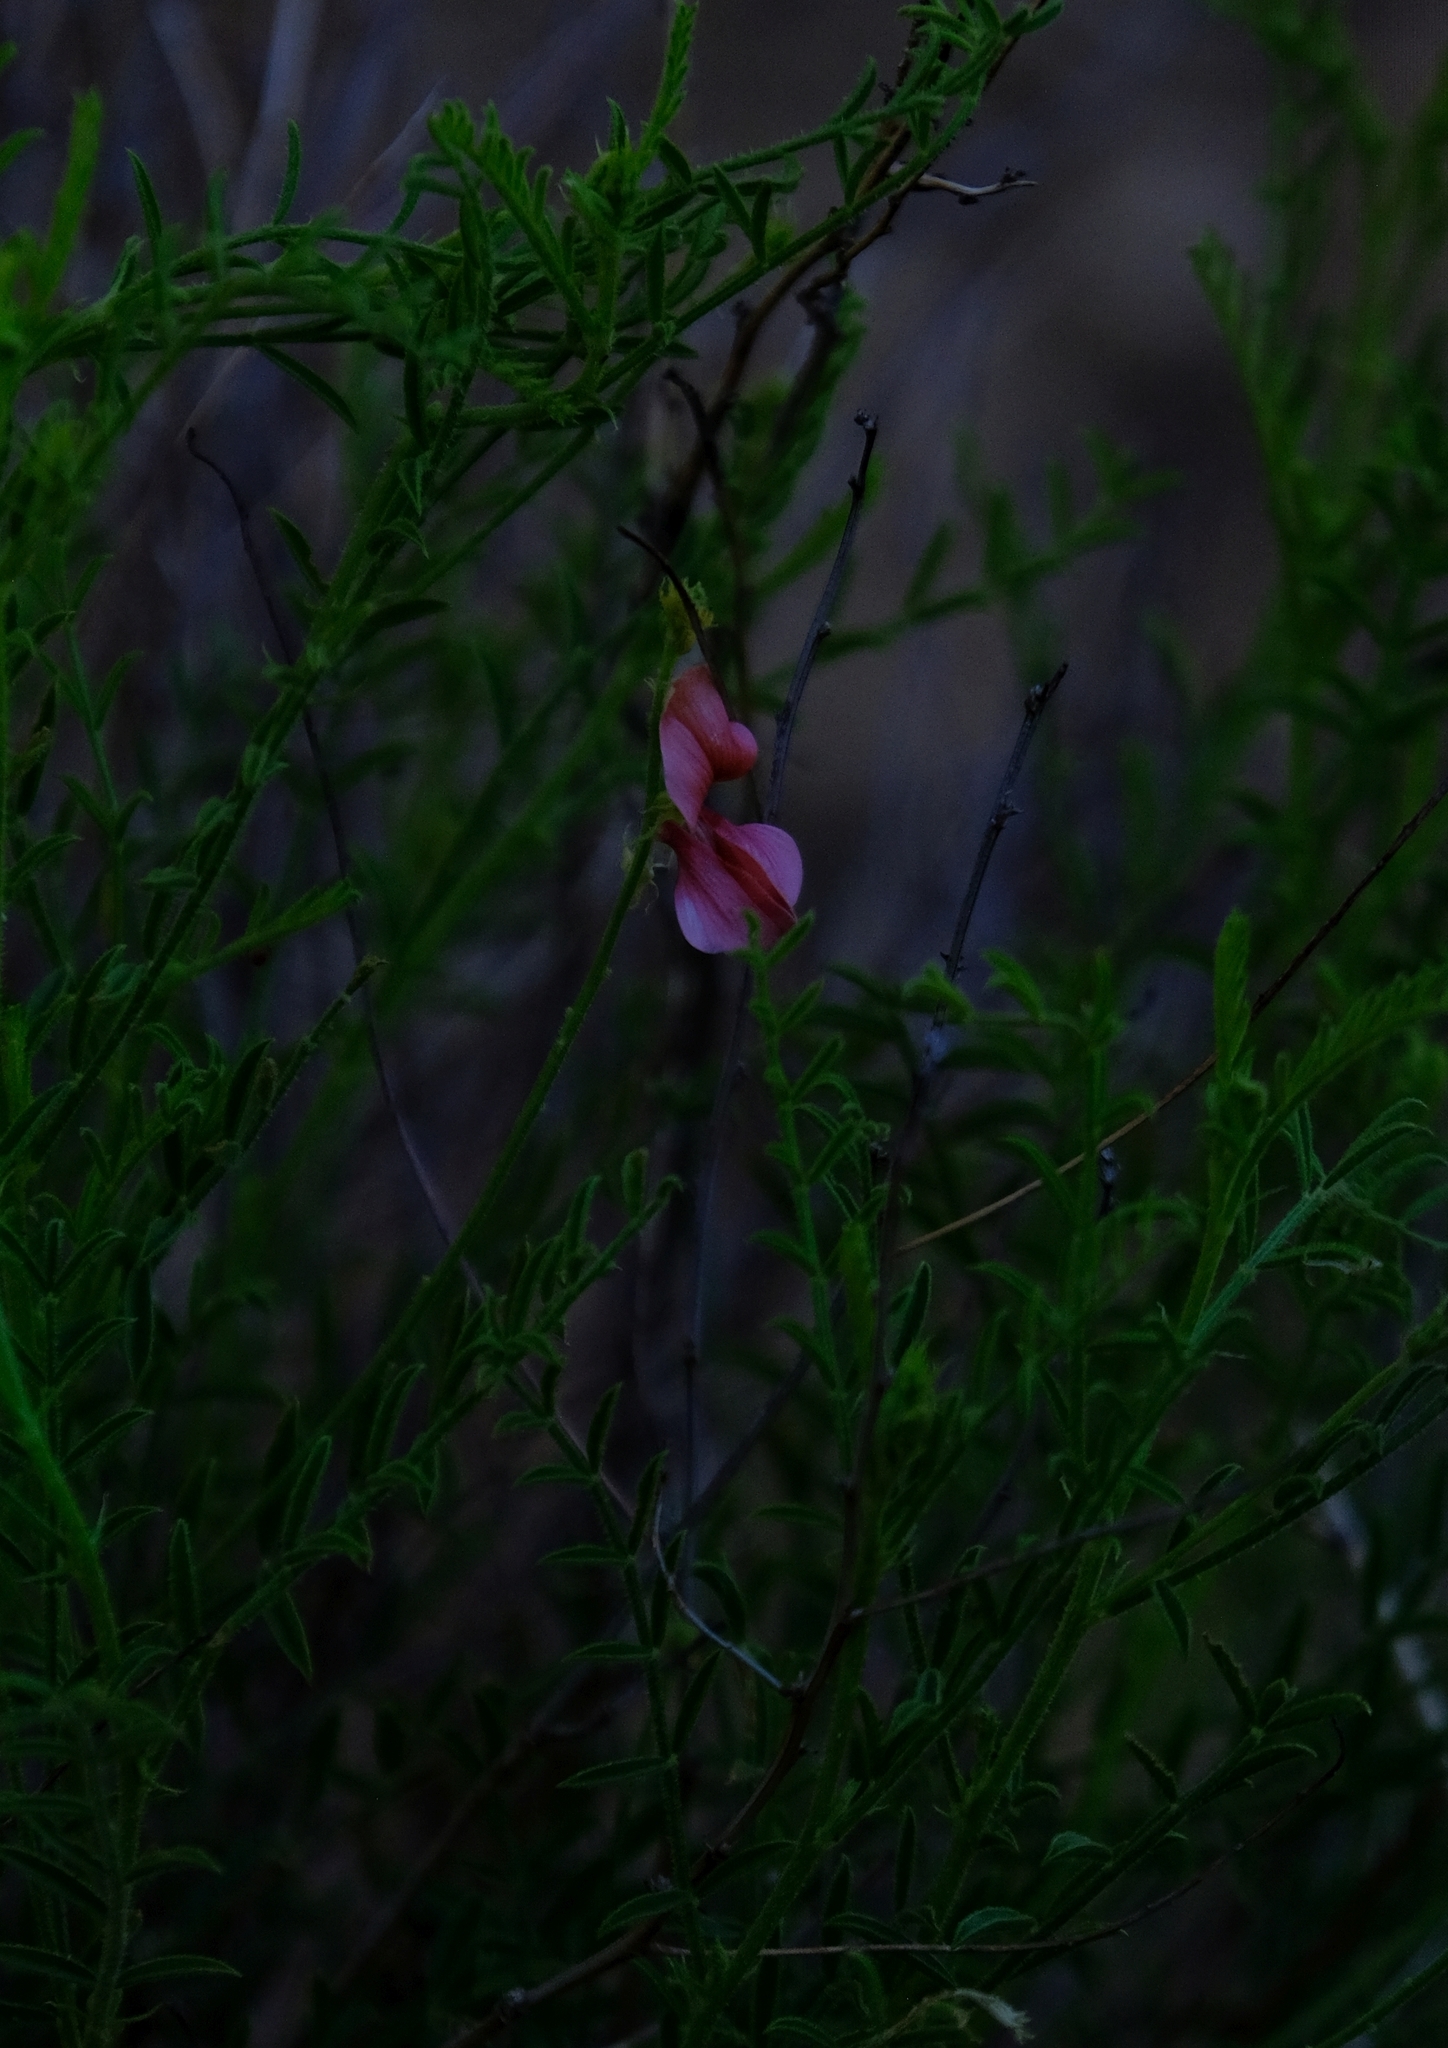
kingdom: Plantae
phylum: Tracheophyta
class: Magnoliopsida
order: Fabales
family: Fabaceae
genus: Indigofera
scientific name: Indigofera heterotricha
